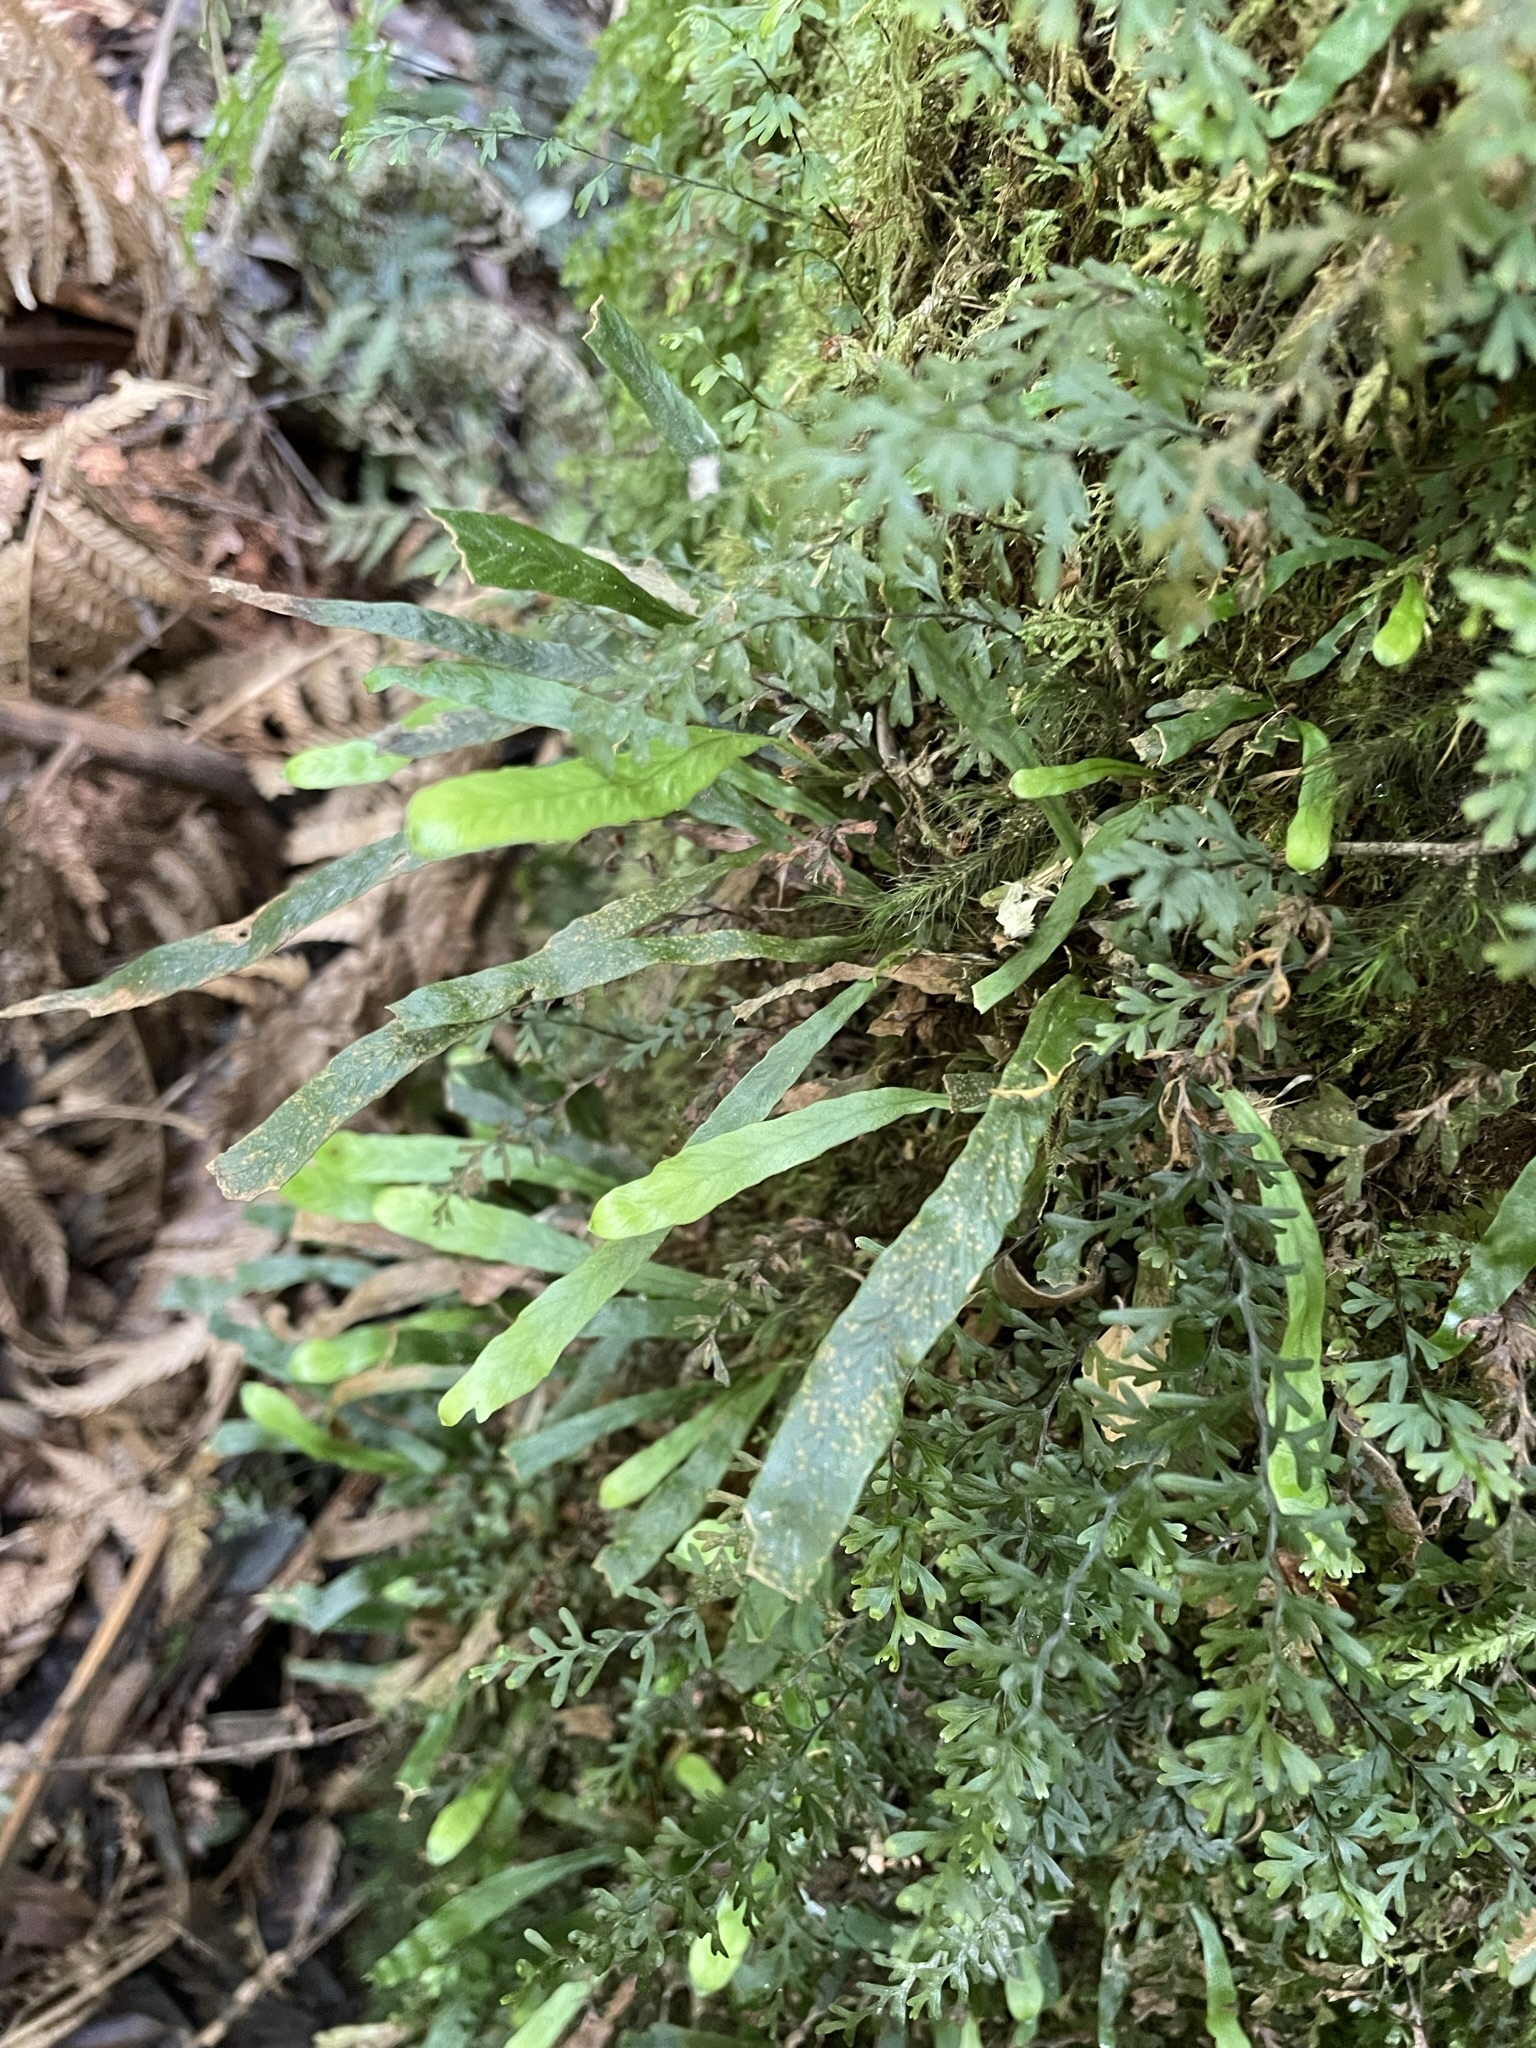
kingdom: Plantae
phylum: Tracheophyta
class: Polypodiopsida
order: Polypodiales
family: Polypodiaceae
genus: Notogrammitis
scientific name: Notogrammitis billardierei
